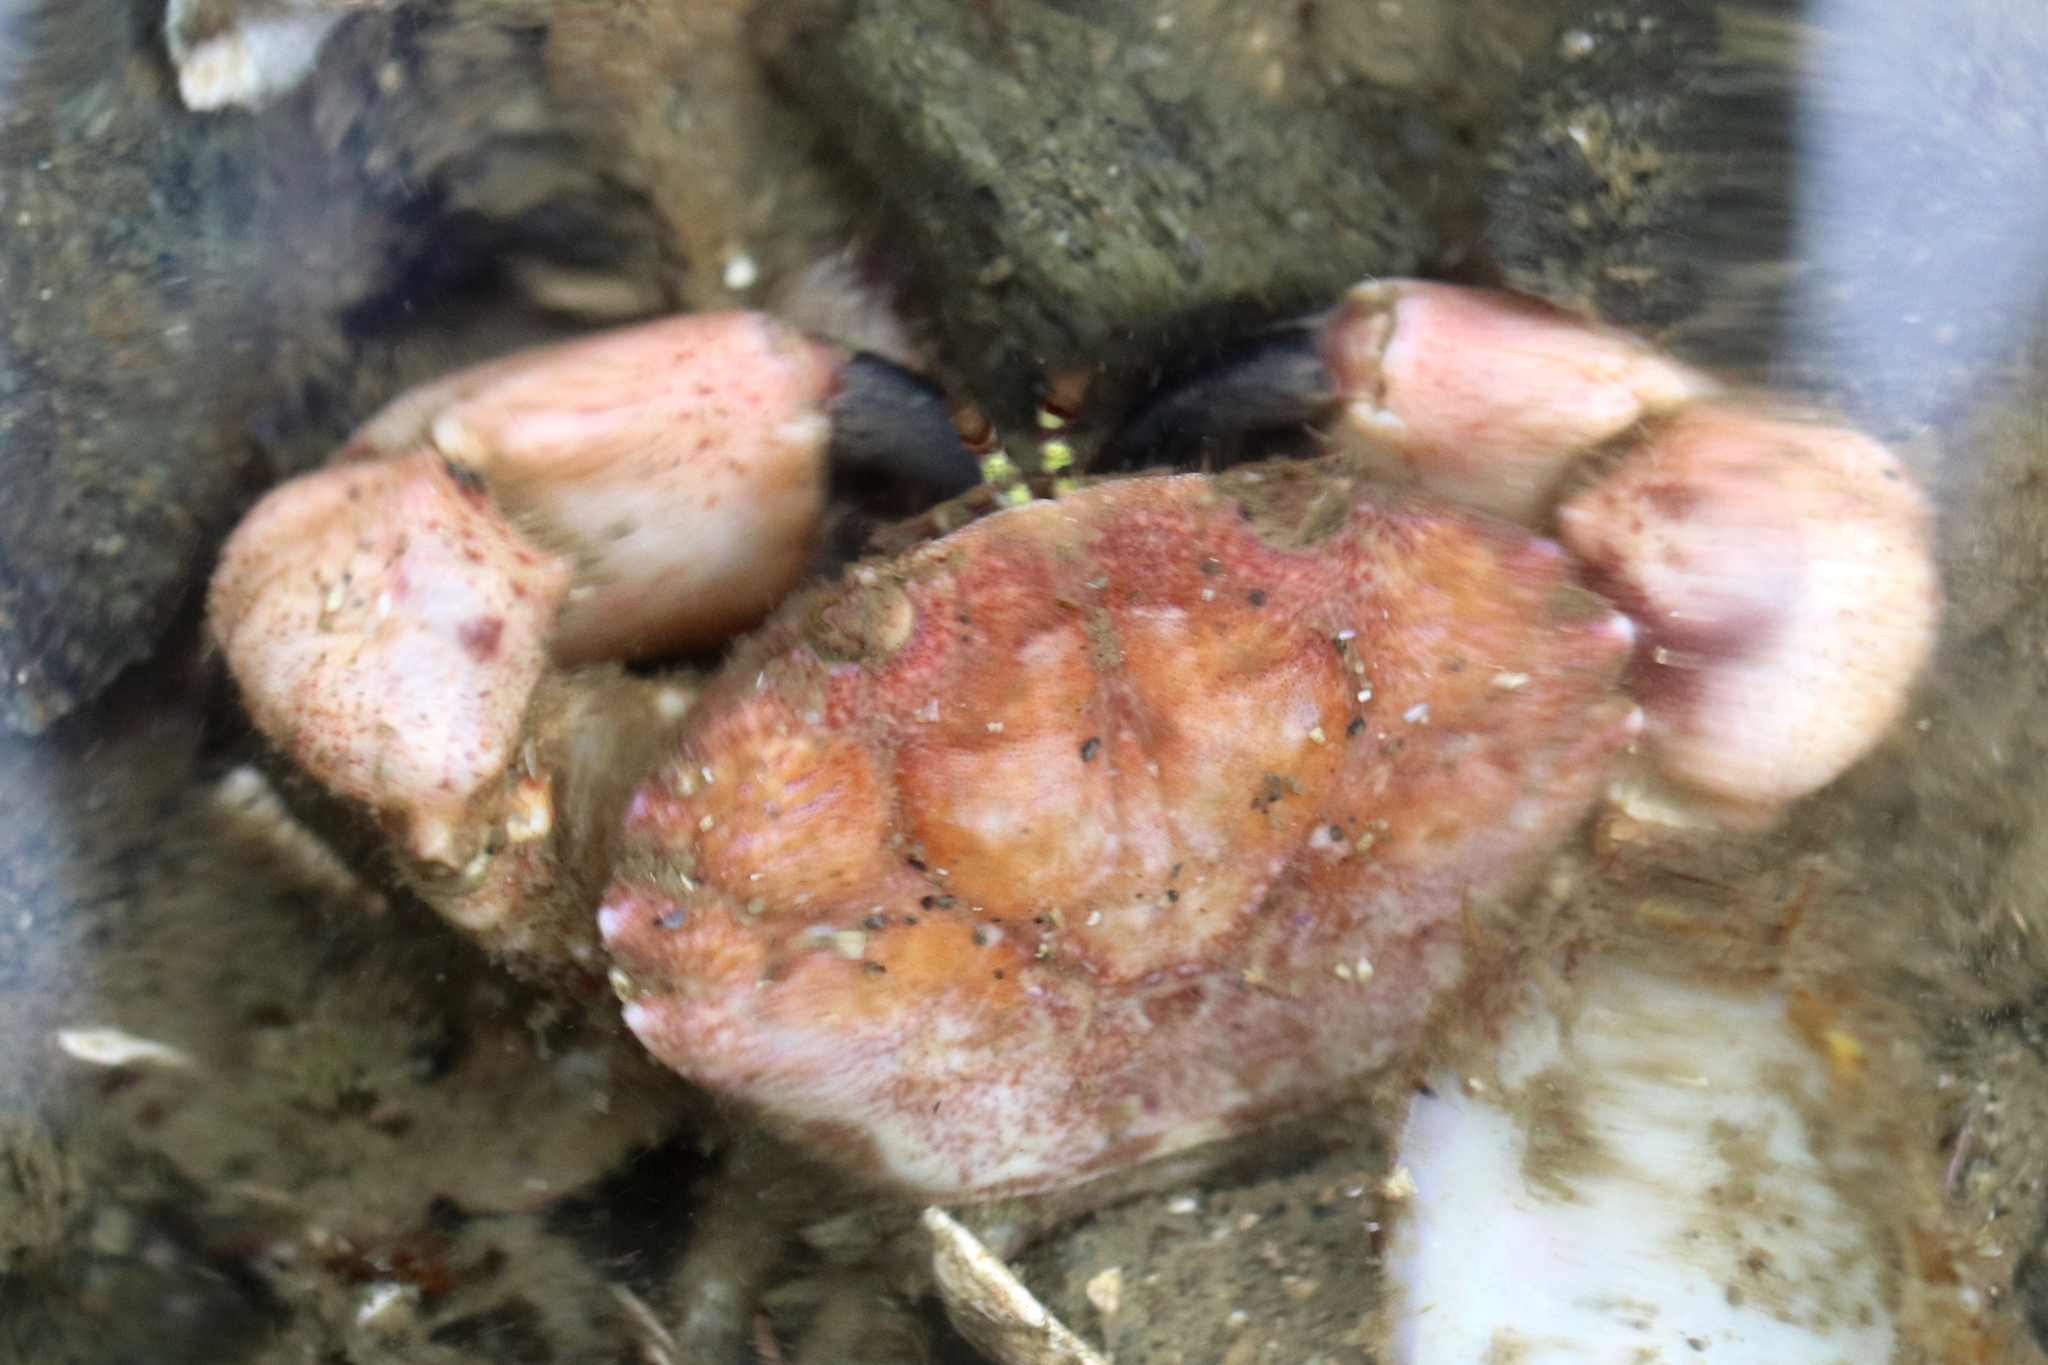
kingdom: Animalia
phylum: Arthropoda
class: Malacostraca
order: Decapoda
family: Panopeidae
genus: Lophopanopeus
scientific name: Lophopanopeus bellus
